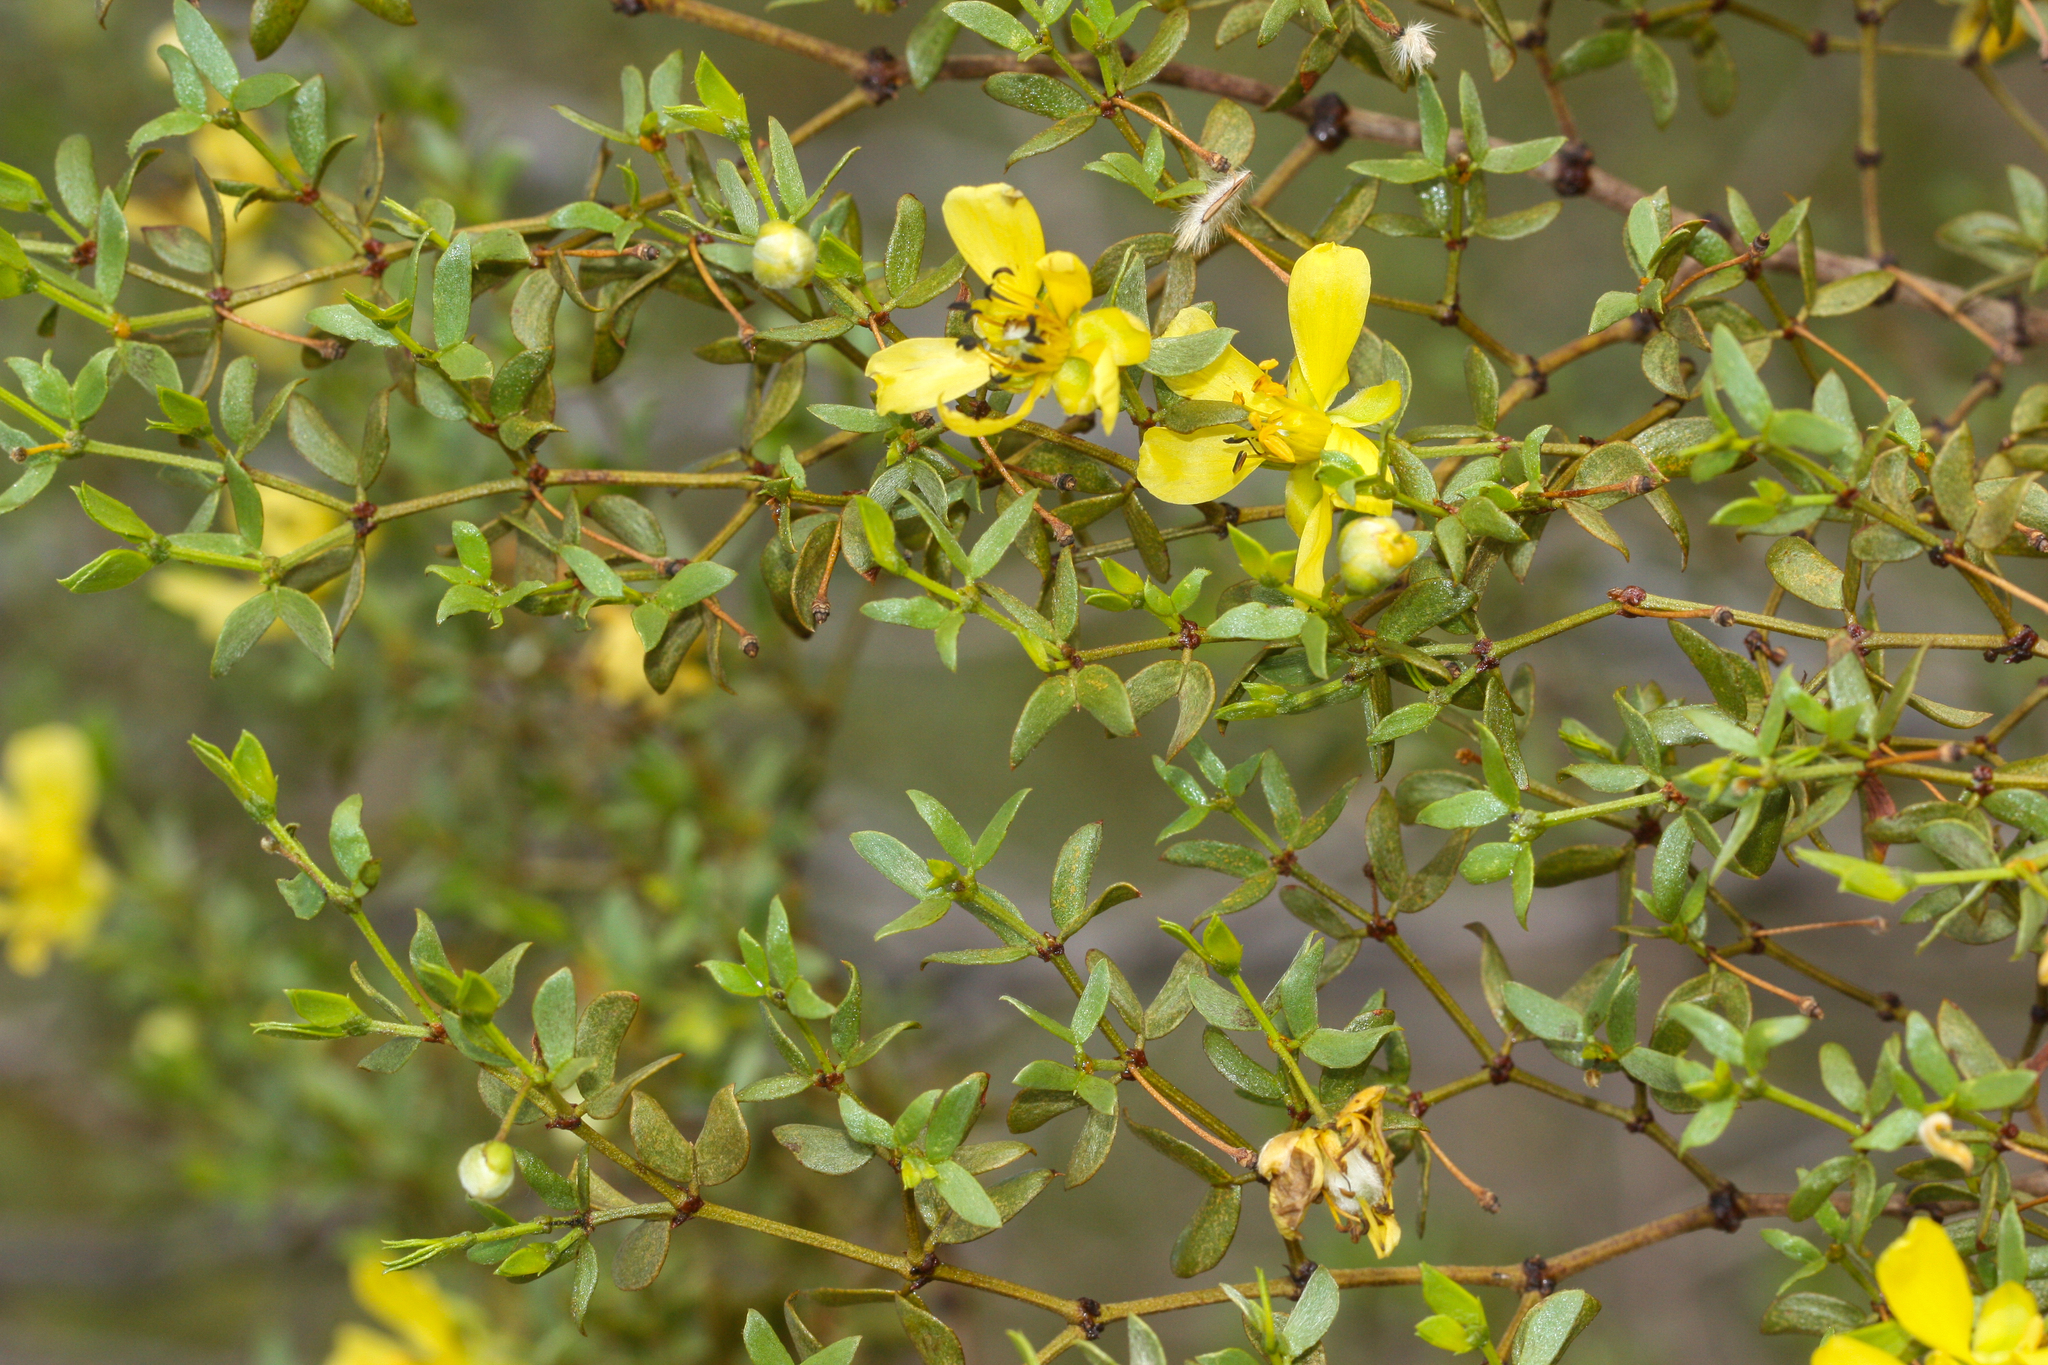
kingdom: Plantae
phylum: Tracheophyta
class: Magnoliopsida
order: Zygophyllales
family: Zygophyllaceae
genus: Larrea
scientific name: Larrea tridentata
